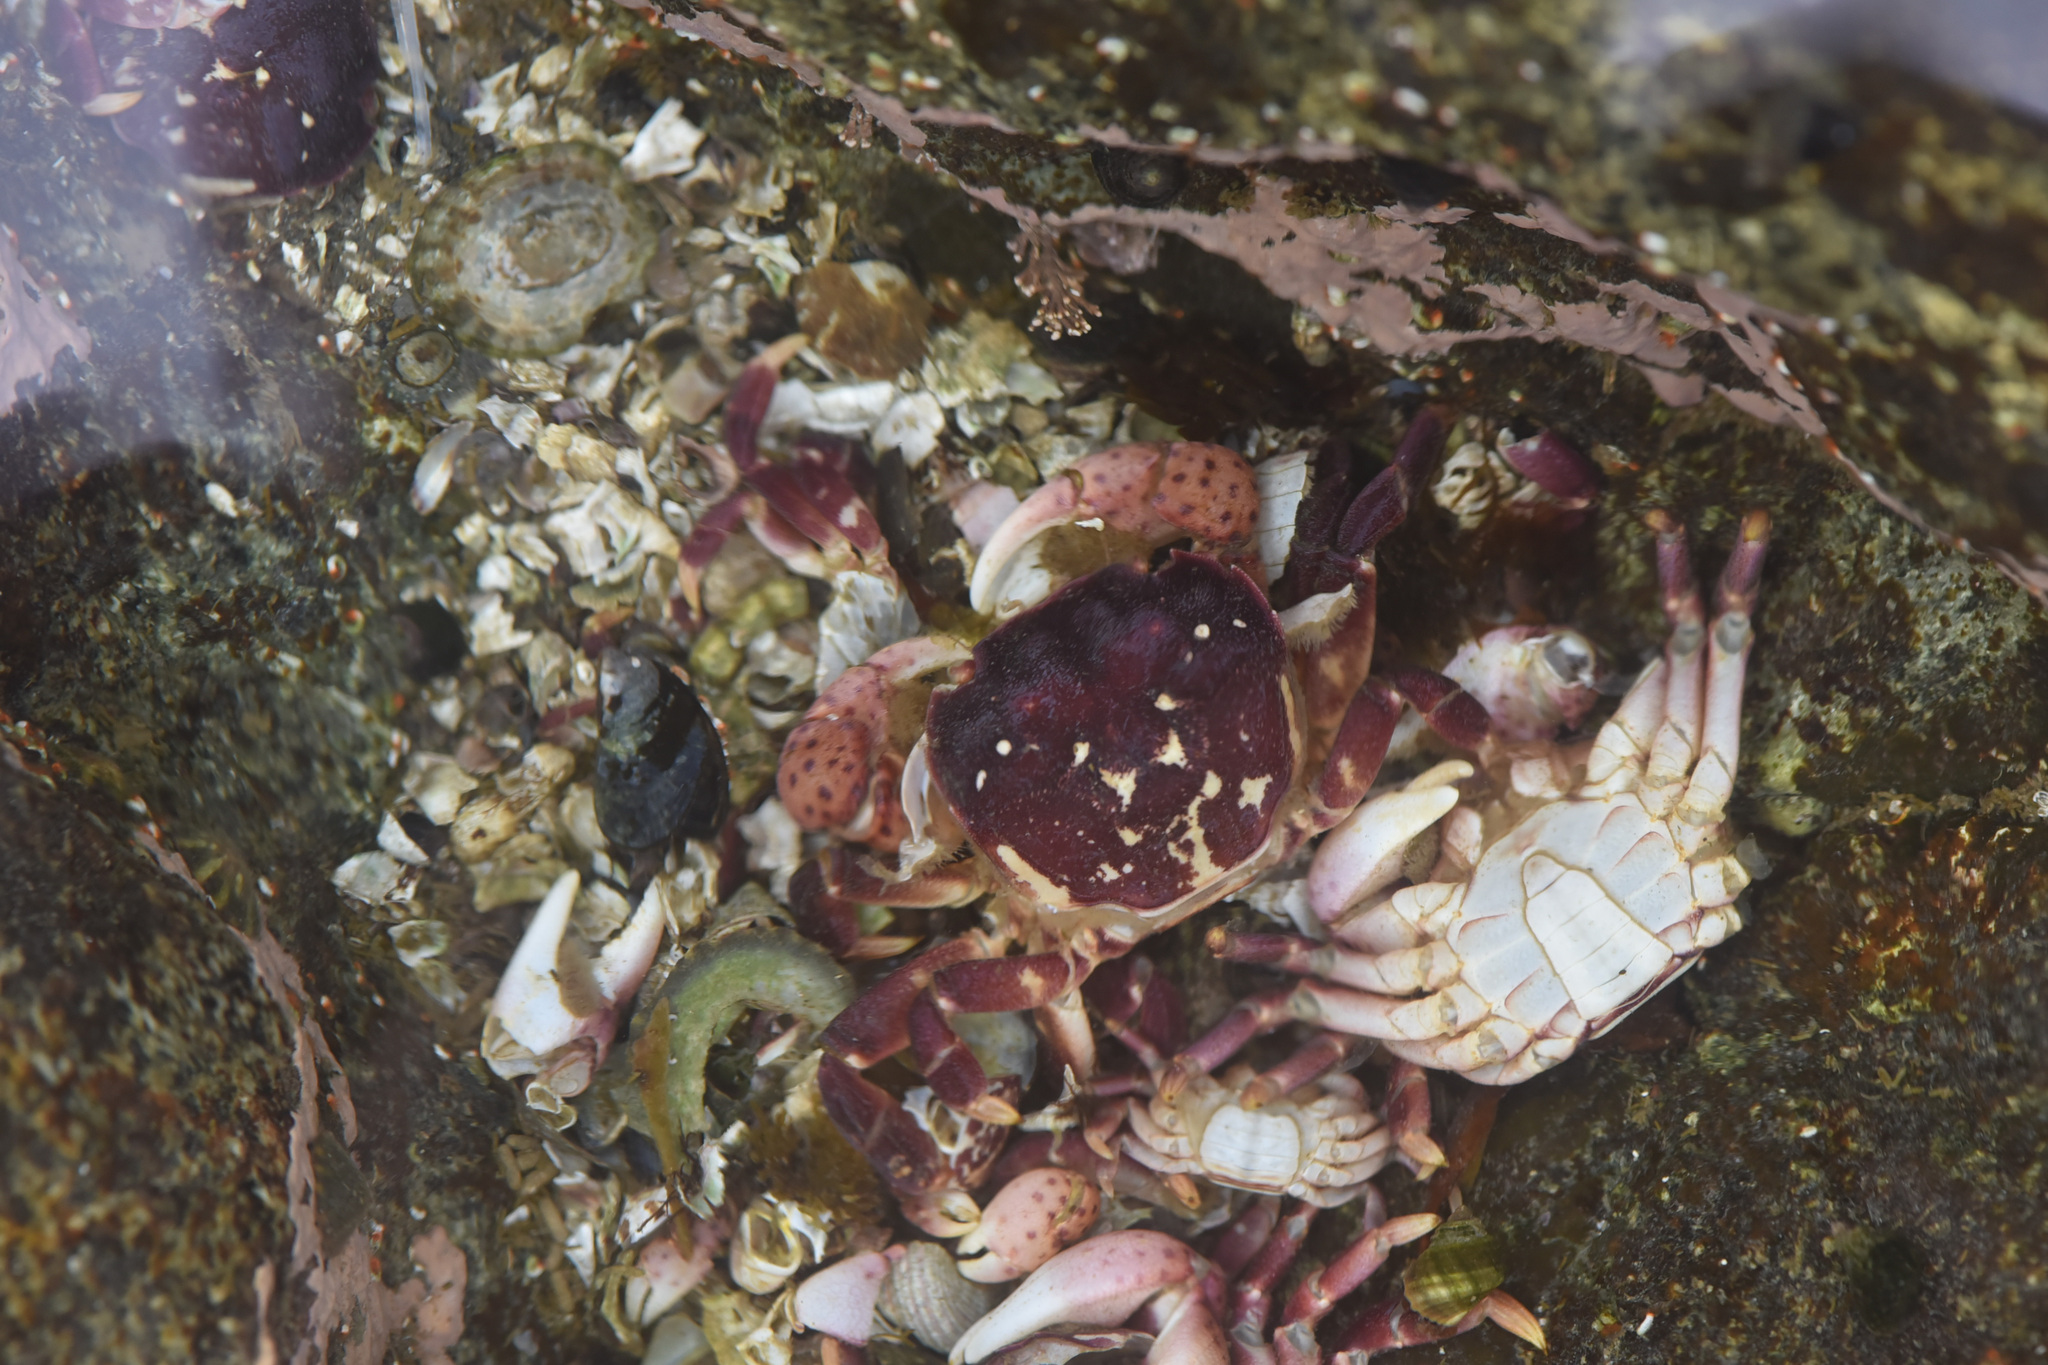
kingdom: Animalia
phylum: Arthropoda
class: Malacostraca
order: Decapoda
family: Varunidae
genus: Hemigrapsus
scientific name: Hemigrapsus nudus
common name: Purple shore crab
